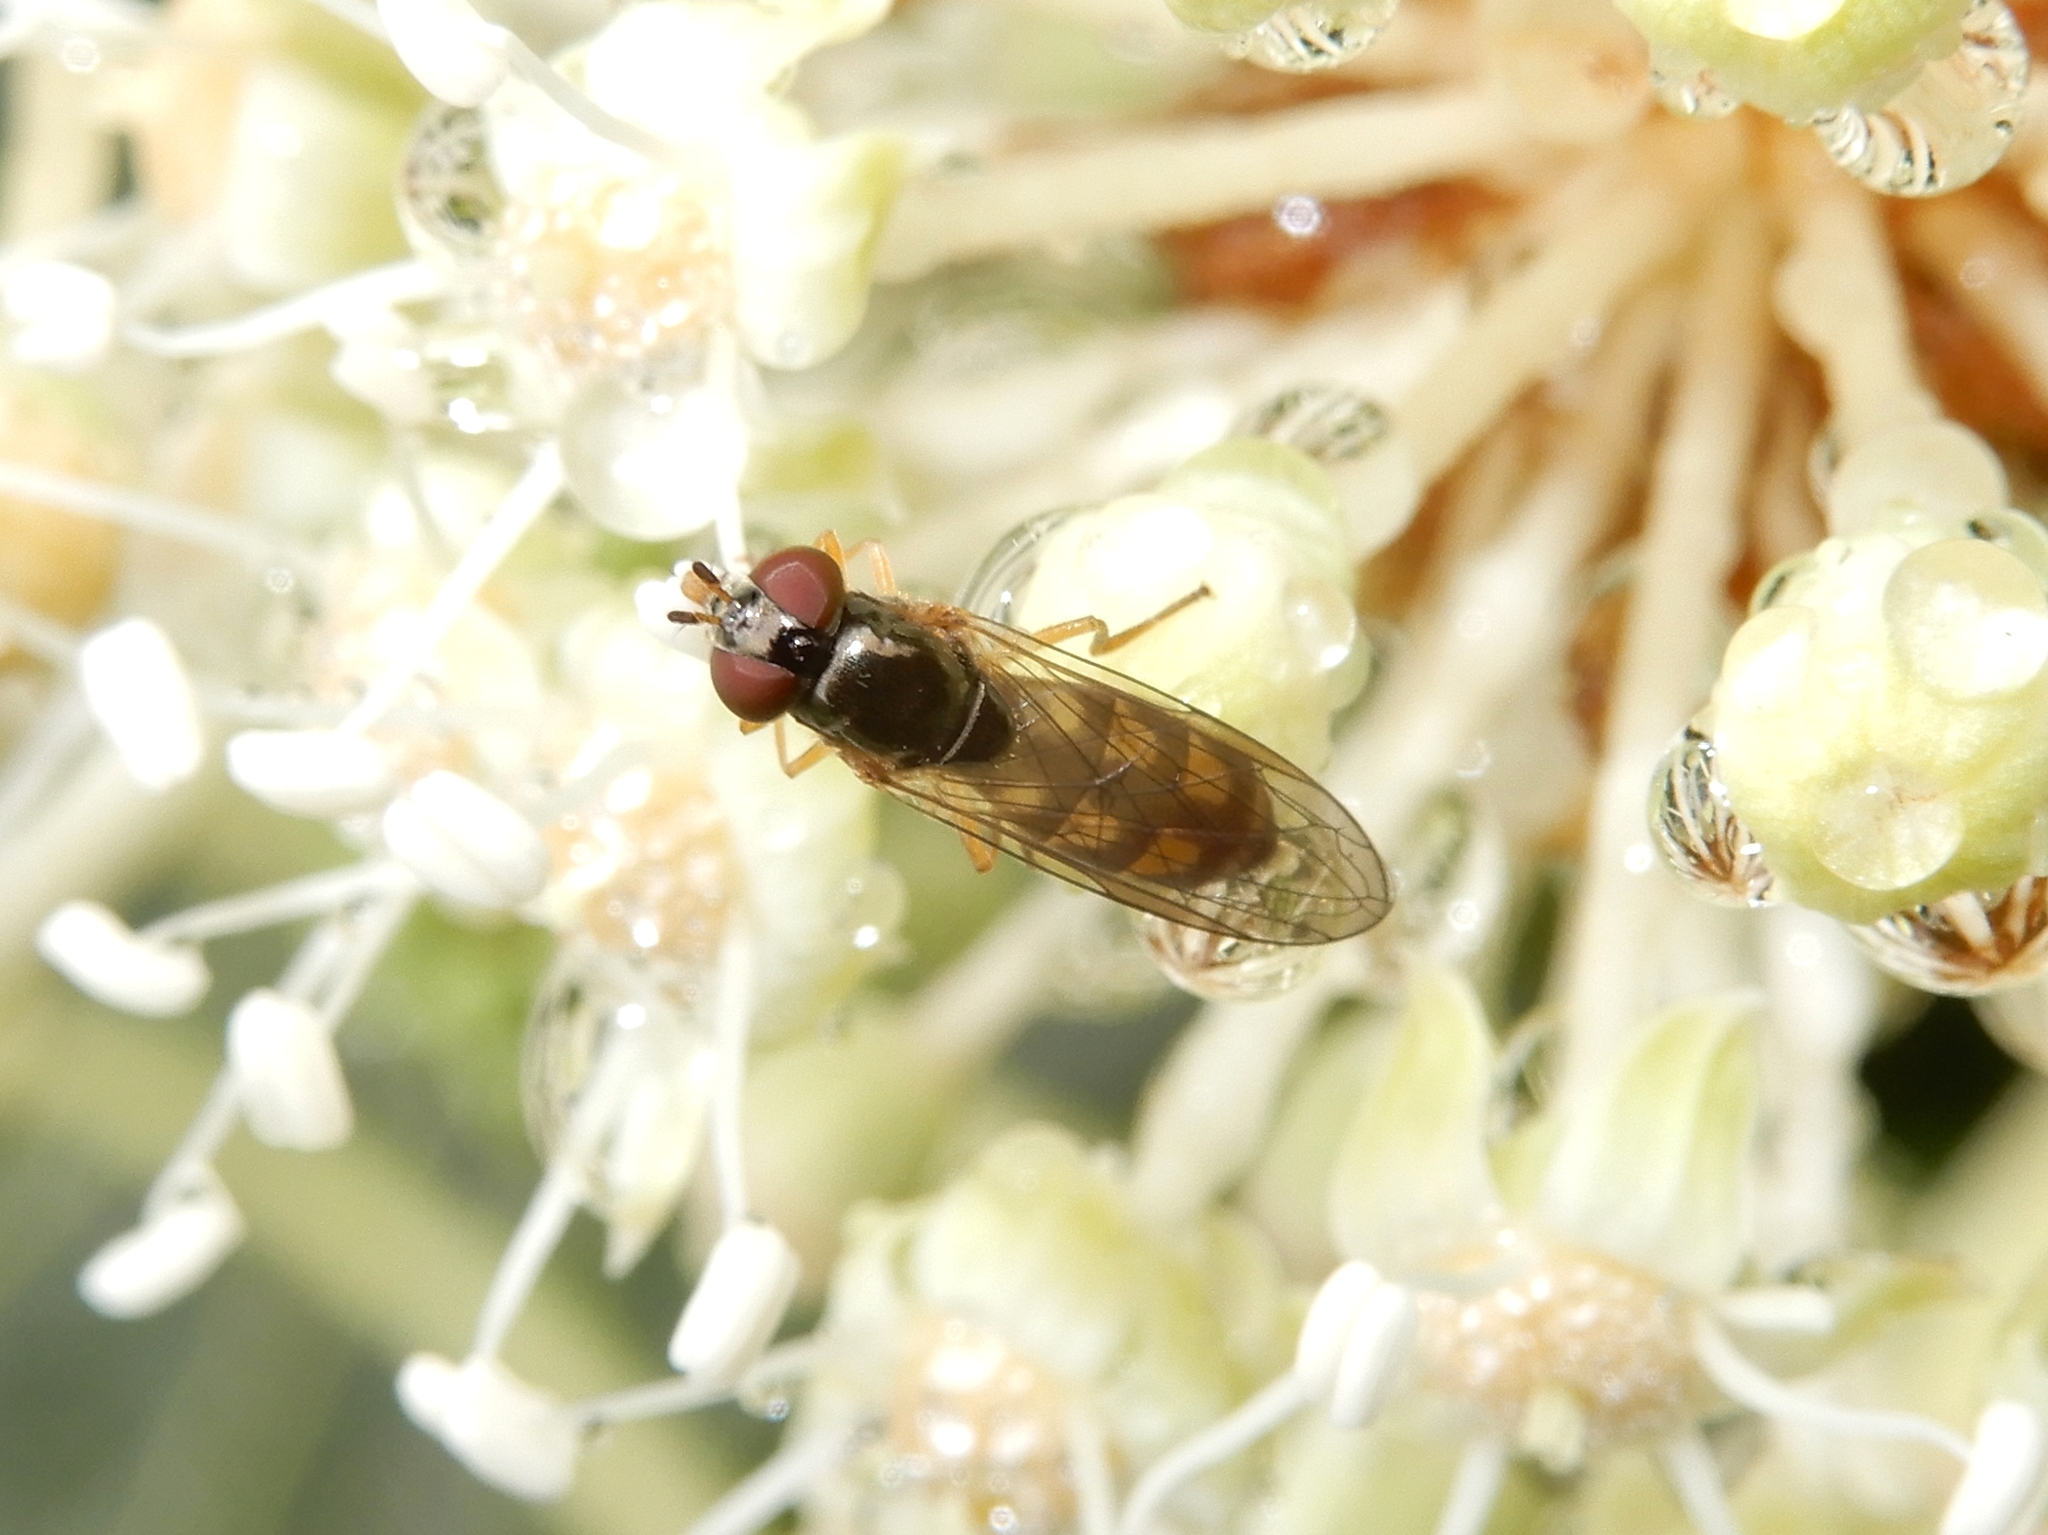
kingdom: Animalia
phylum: Arthropoda
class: Insecta
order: Diptera
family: Syrphidae
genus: Melanostoma
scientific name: Melanostoma fasciatum
